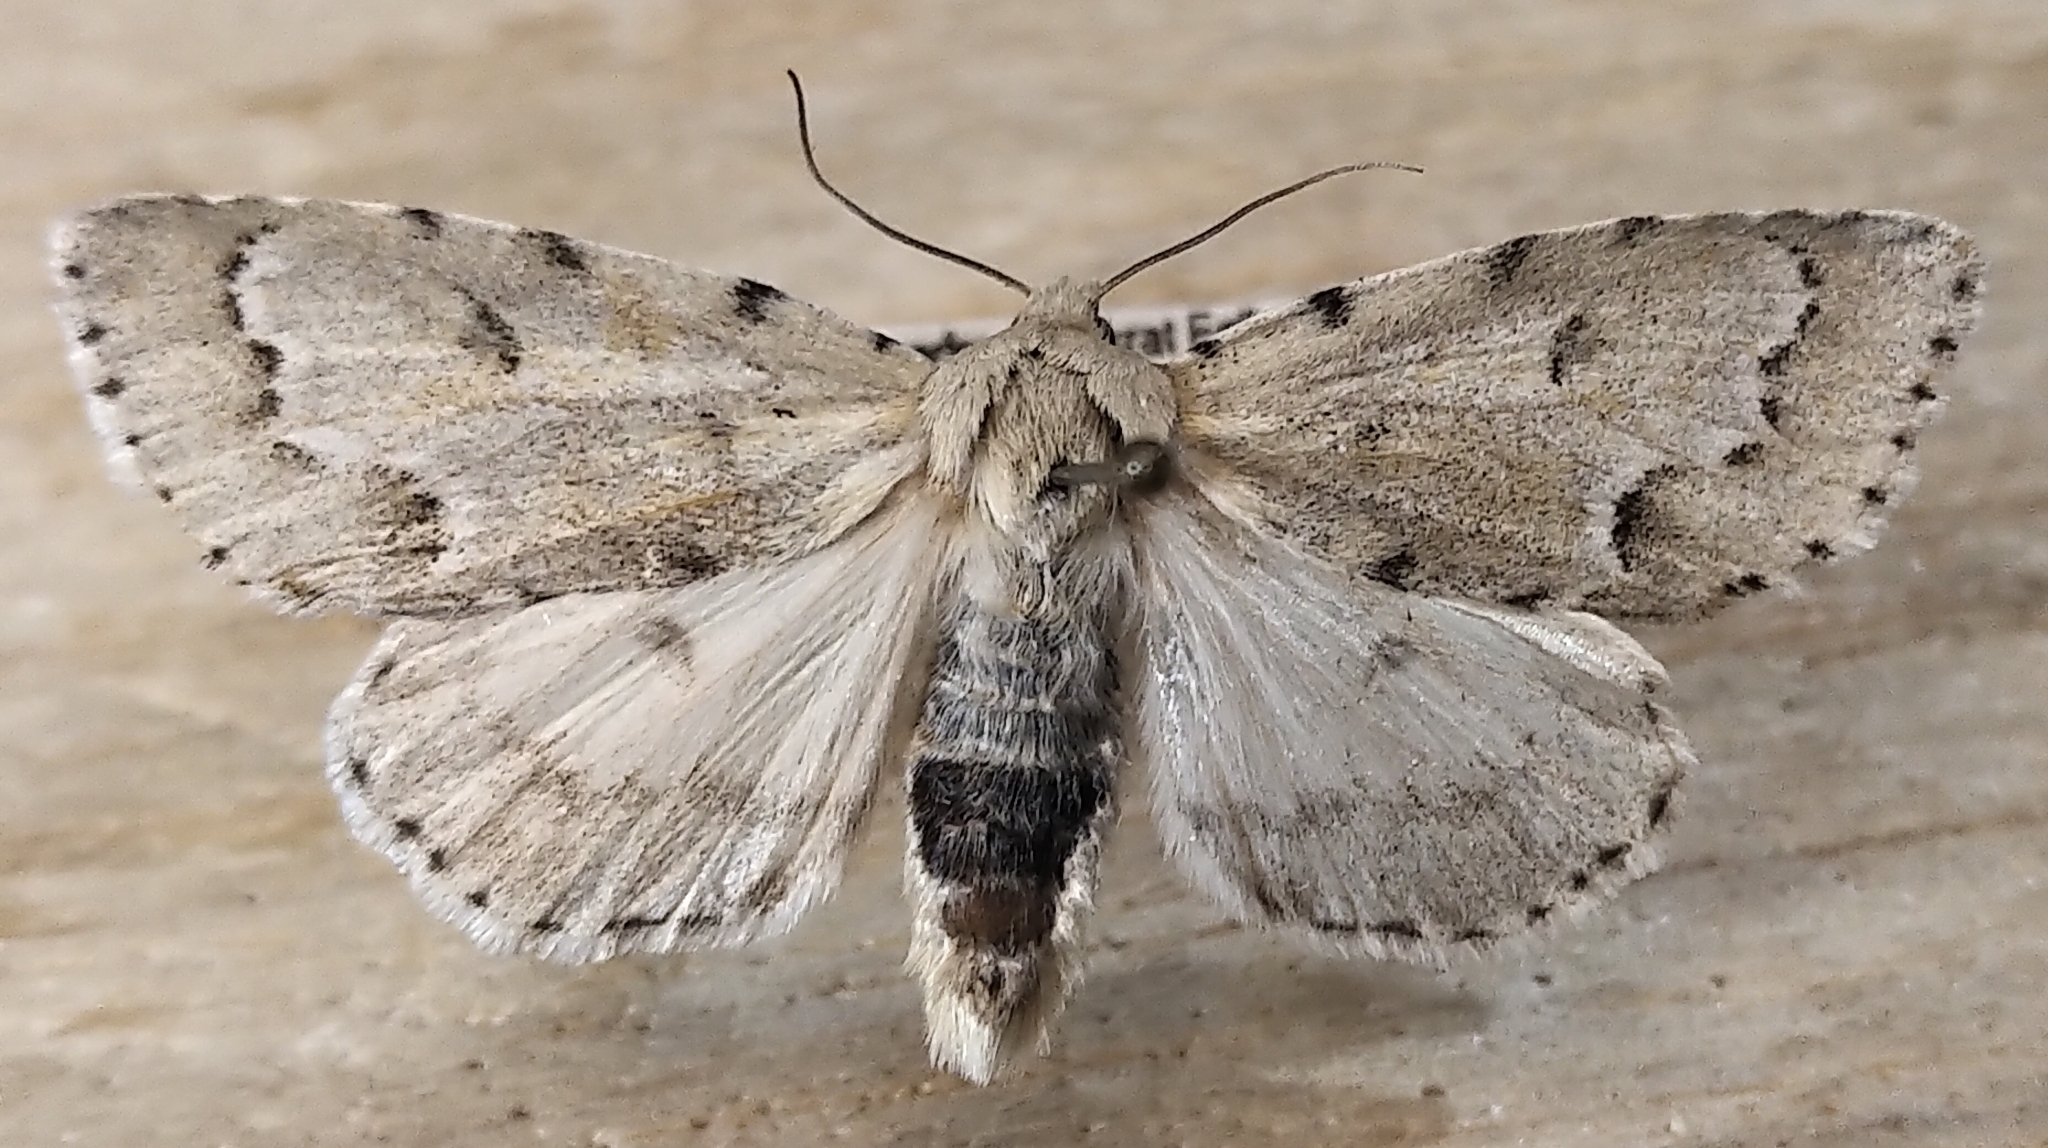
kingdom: Animalia
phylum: Arthropoda
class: Insecta
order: Lepidoptera
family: Noctuidae
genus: Acronicta
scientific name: Acronicta innotata
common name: Unmarked dagger
